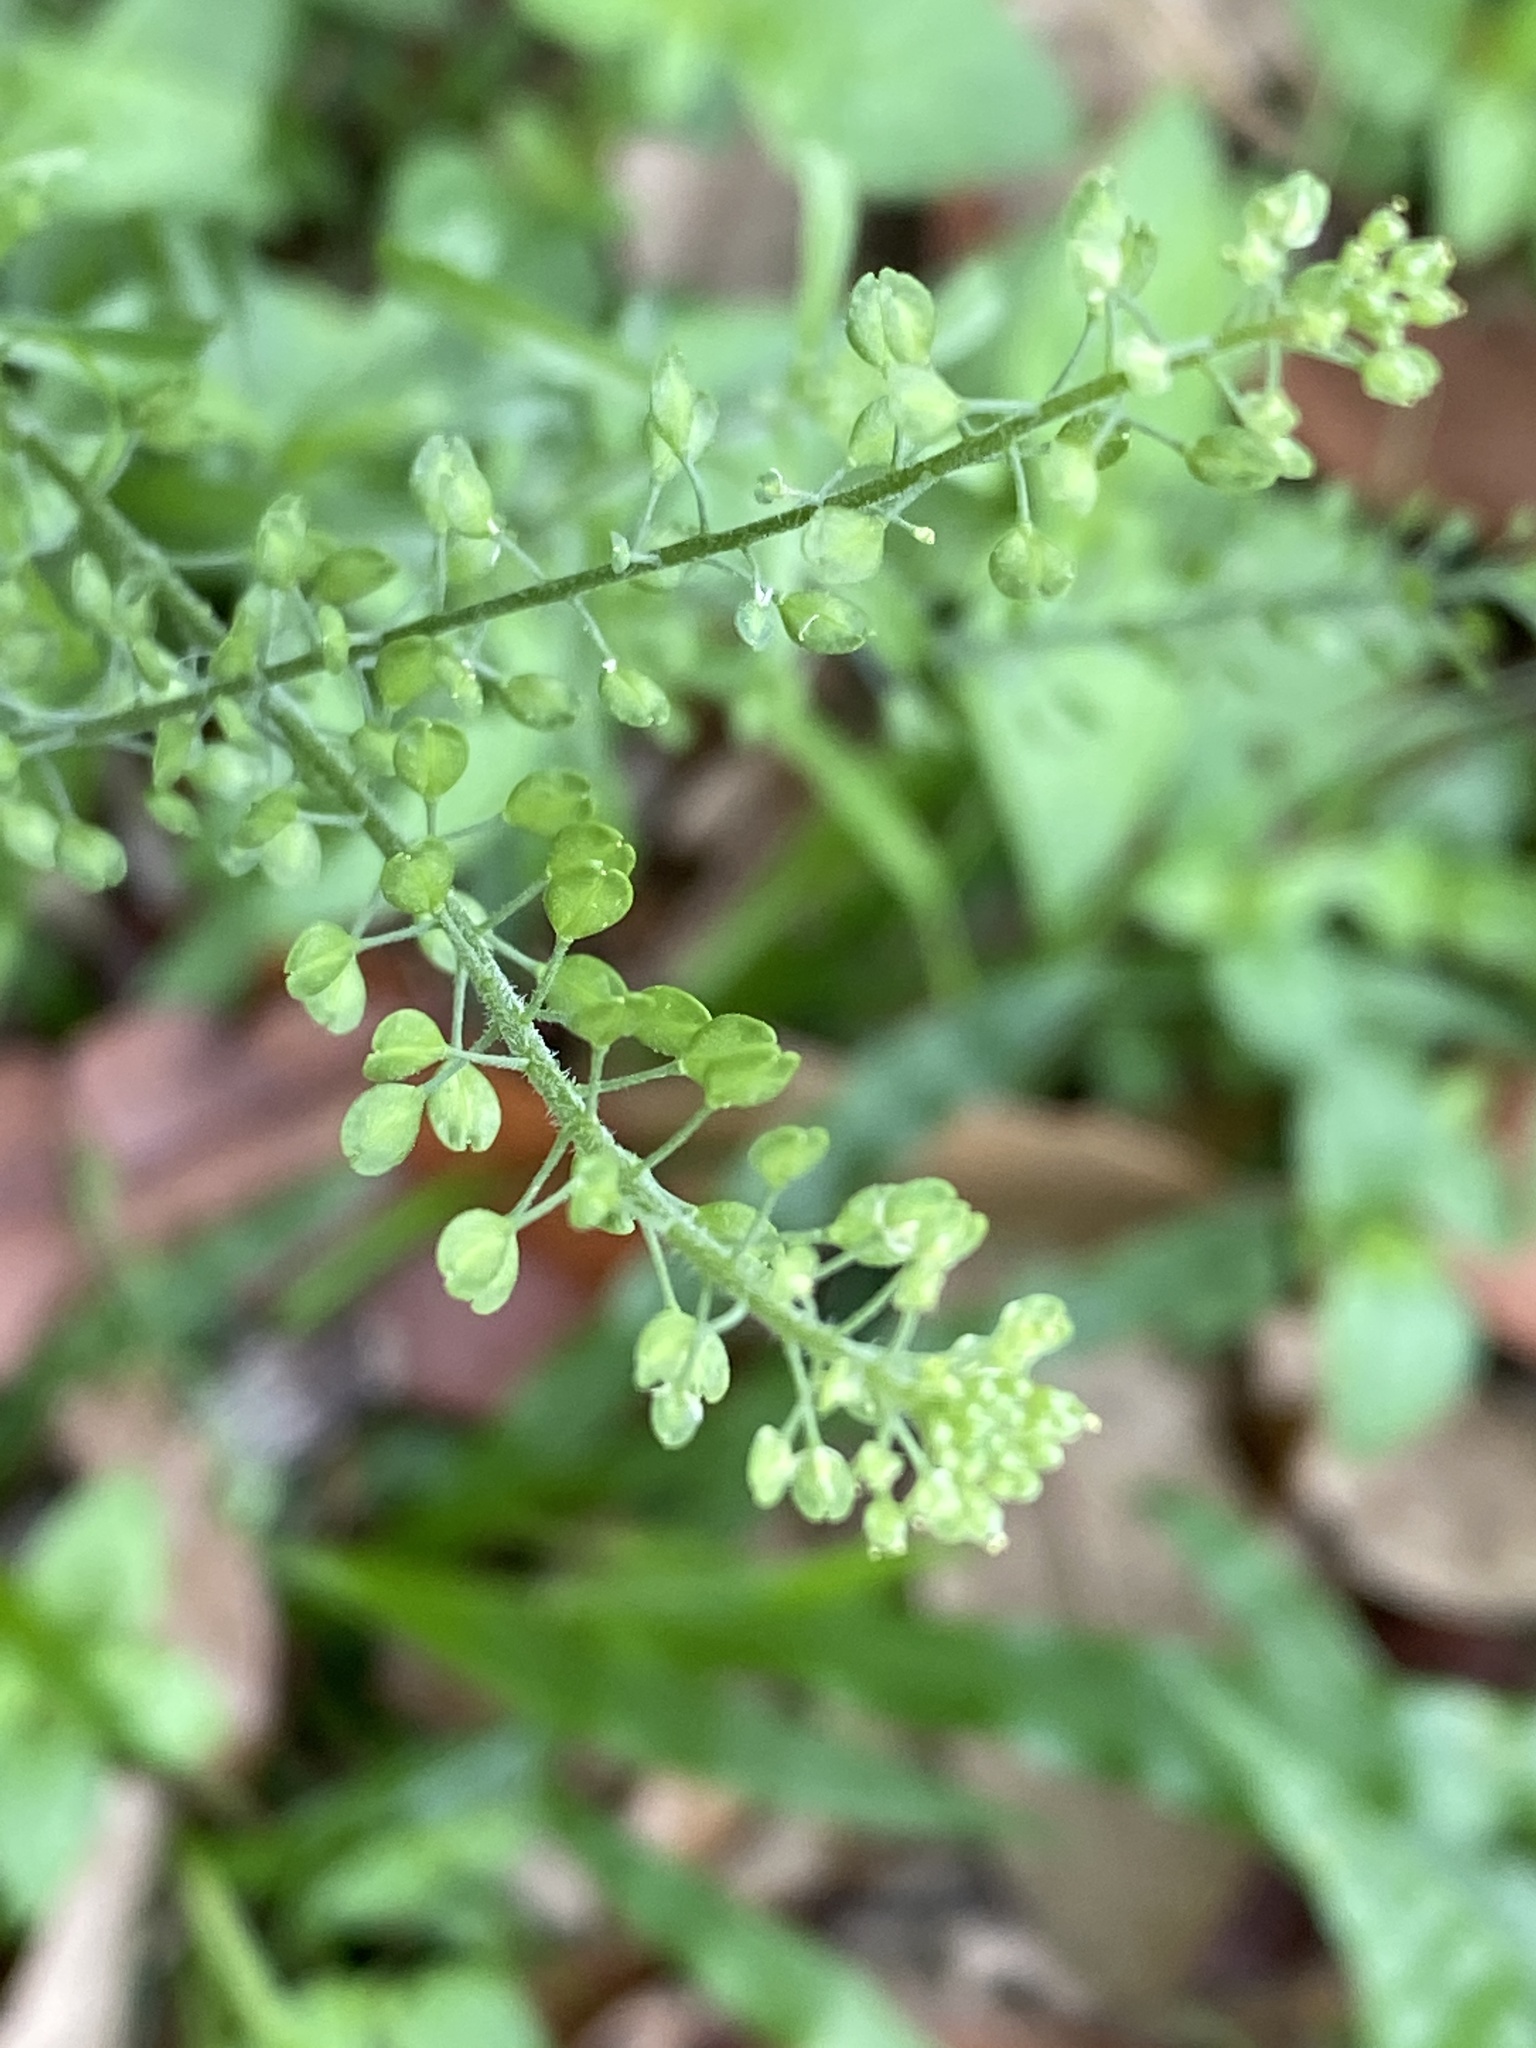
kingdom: Plantae
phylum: Tracheophyta
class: Magnoliopsida
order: Brassicales
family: Brassicaceae
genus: Lepidium
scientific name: Lepidium virginicum
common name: Least pepperwort
